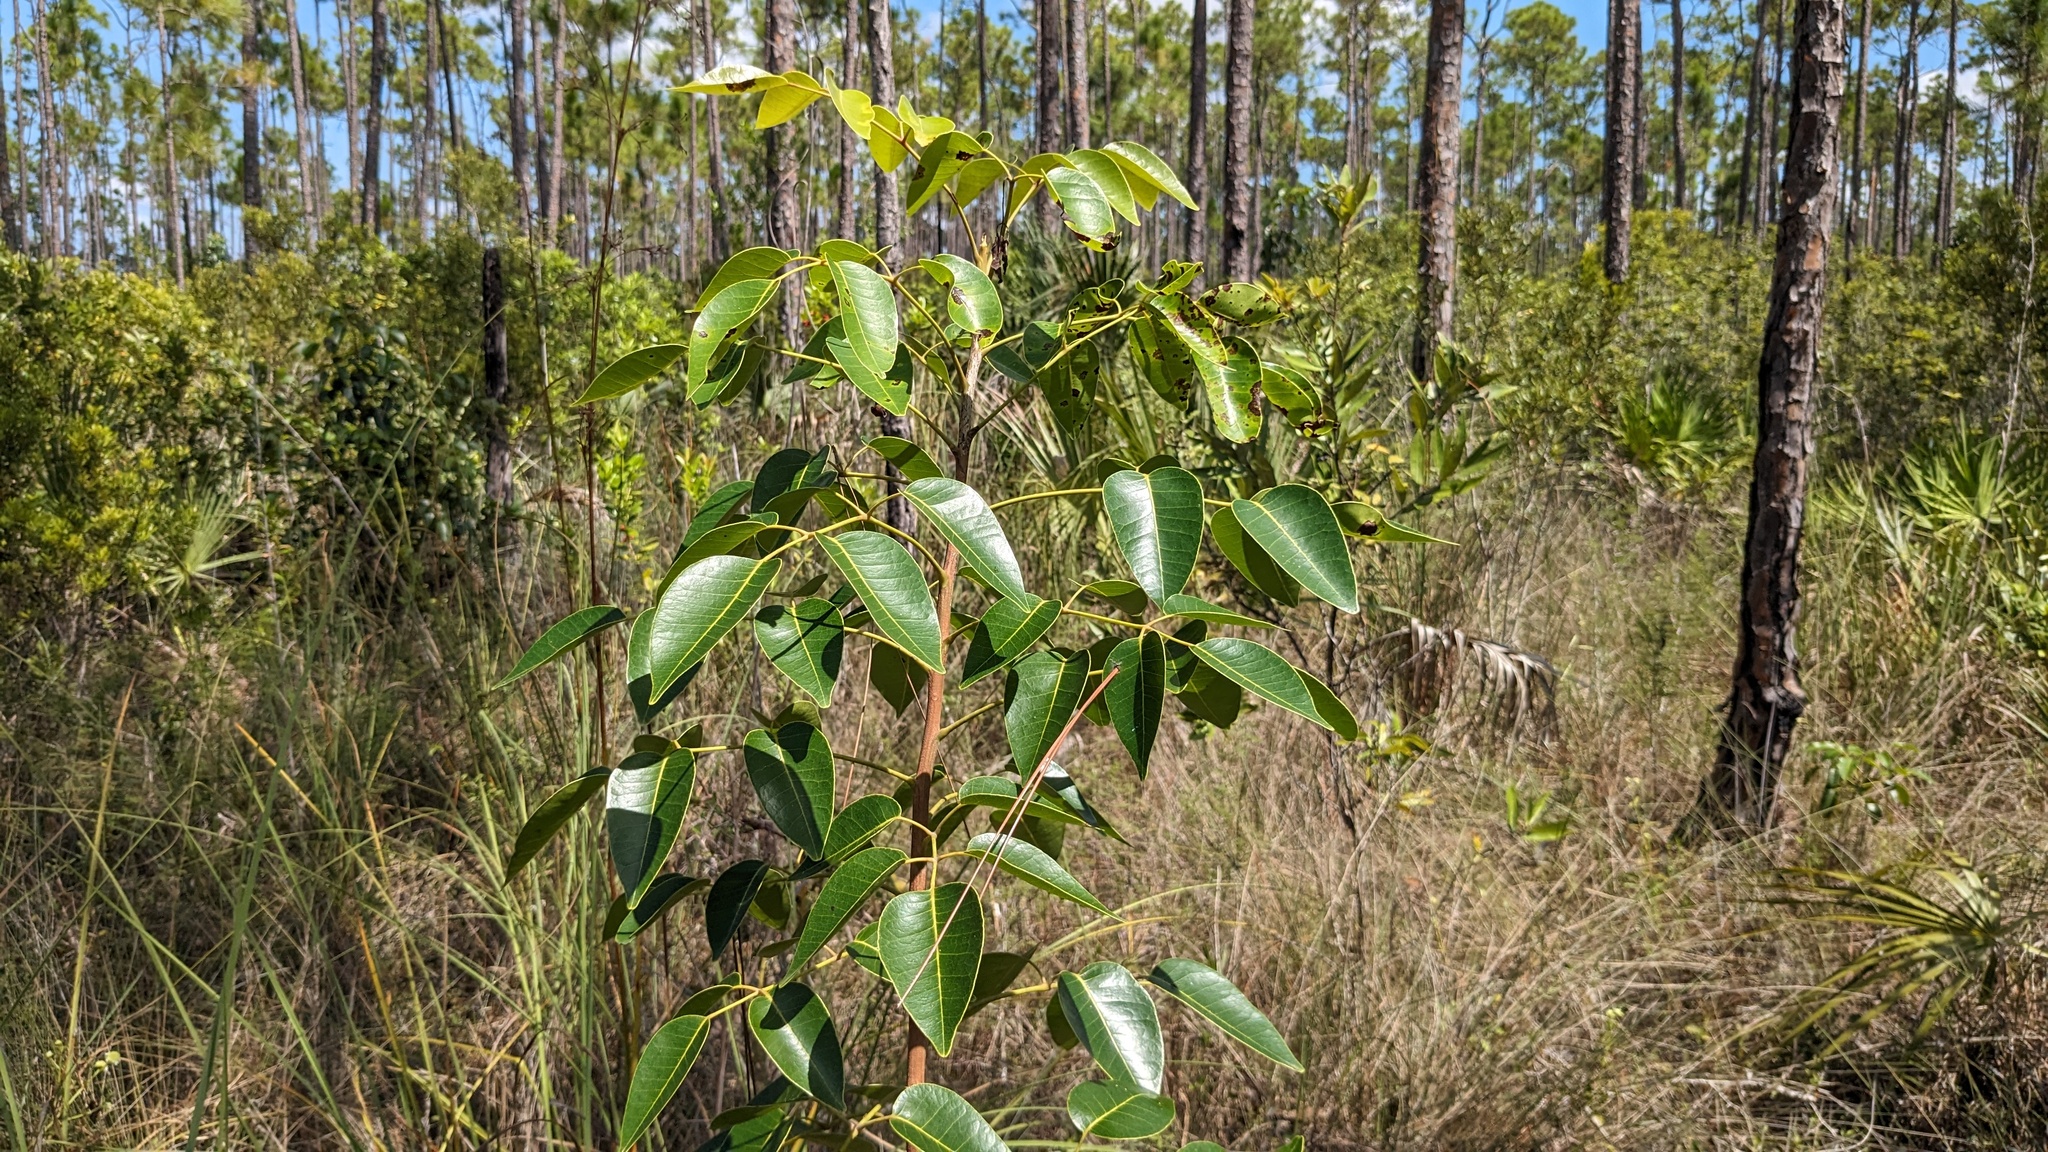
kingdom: Plantae
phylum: Tracheophyta
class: Magnoliopsida
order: Sapindales
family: Anacardiaceae
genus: Metopium
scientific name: Metopium toxiferum
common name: Florida poisontree
